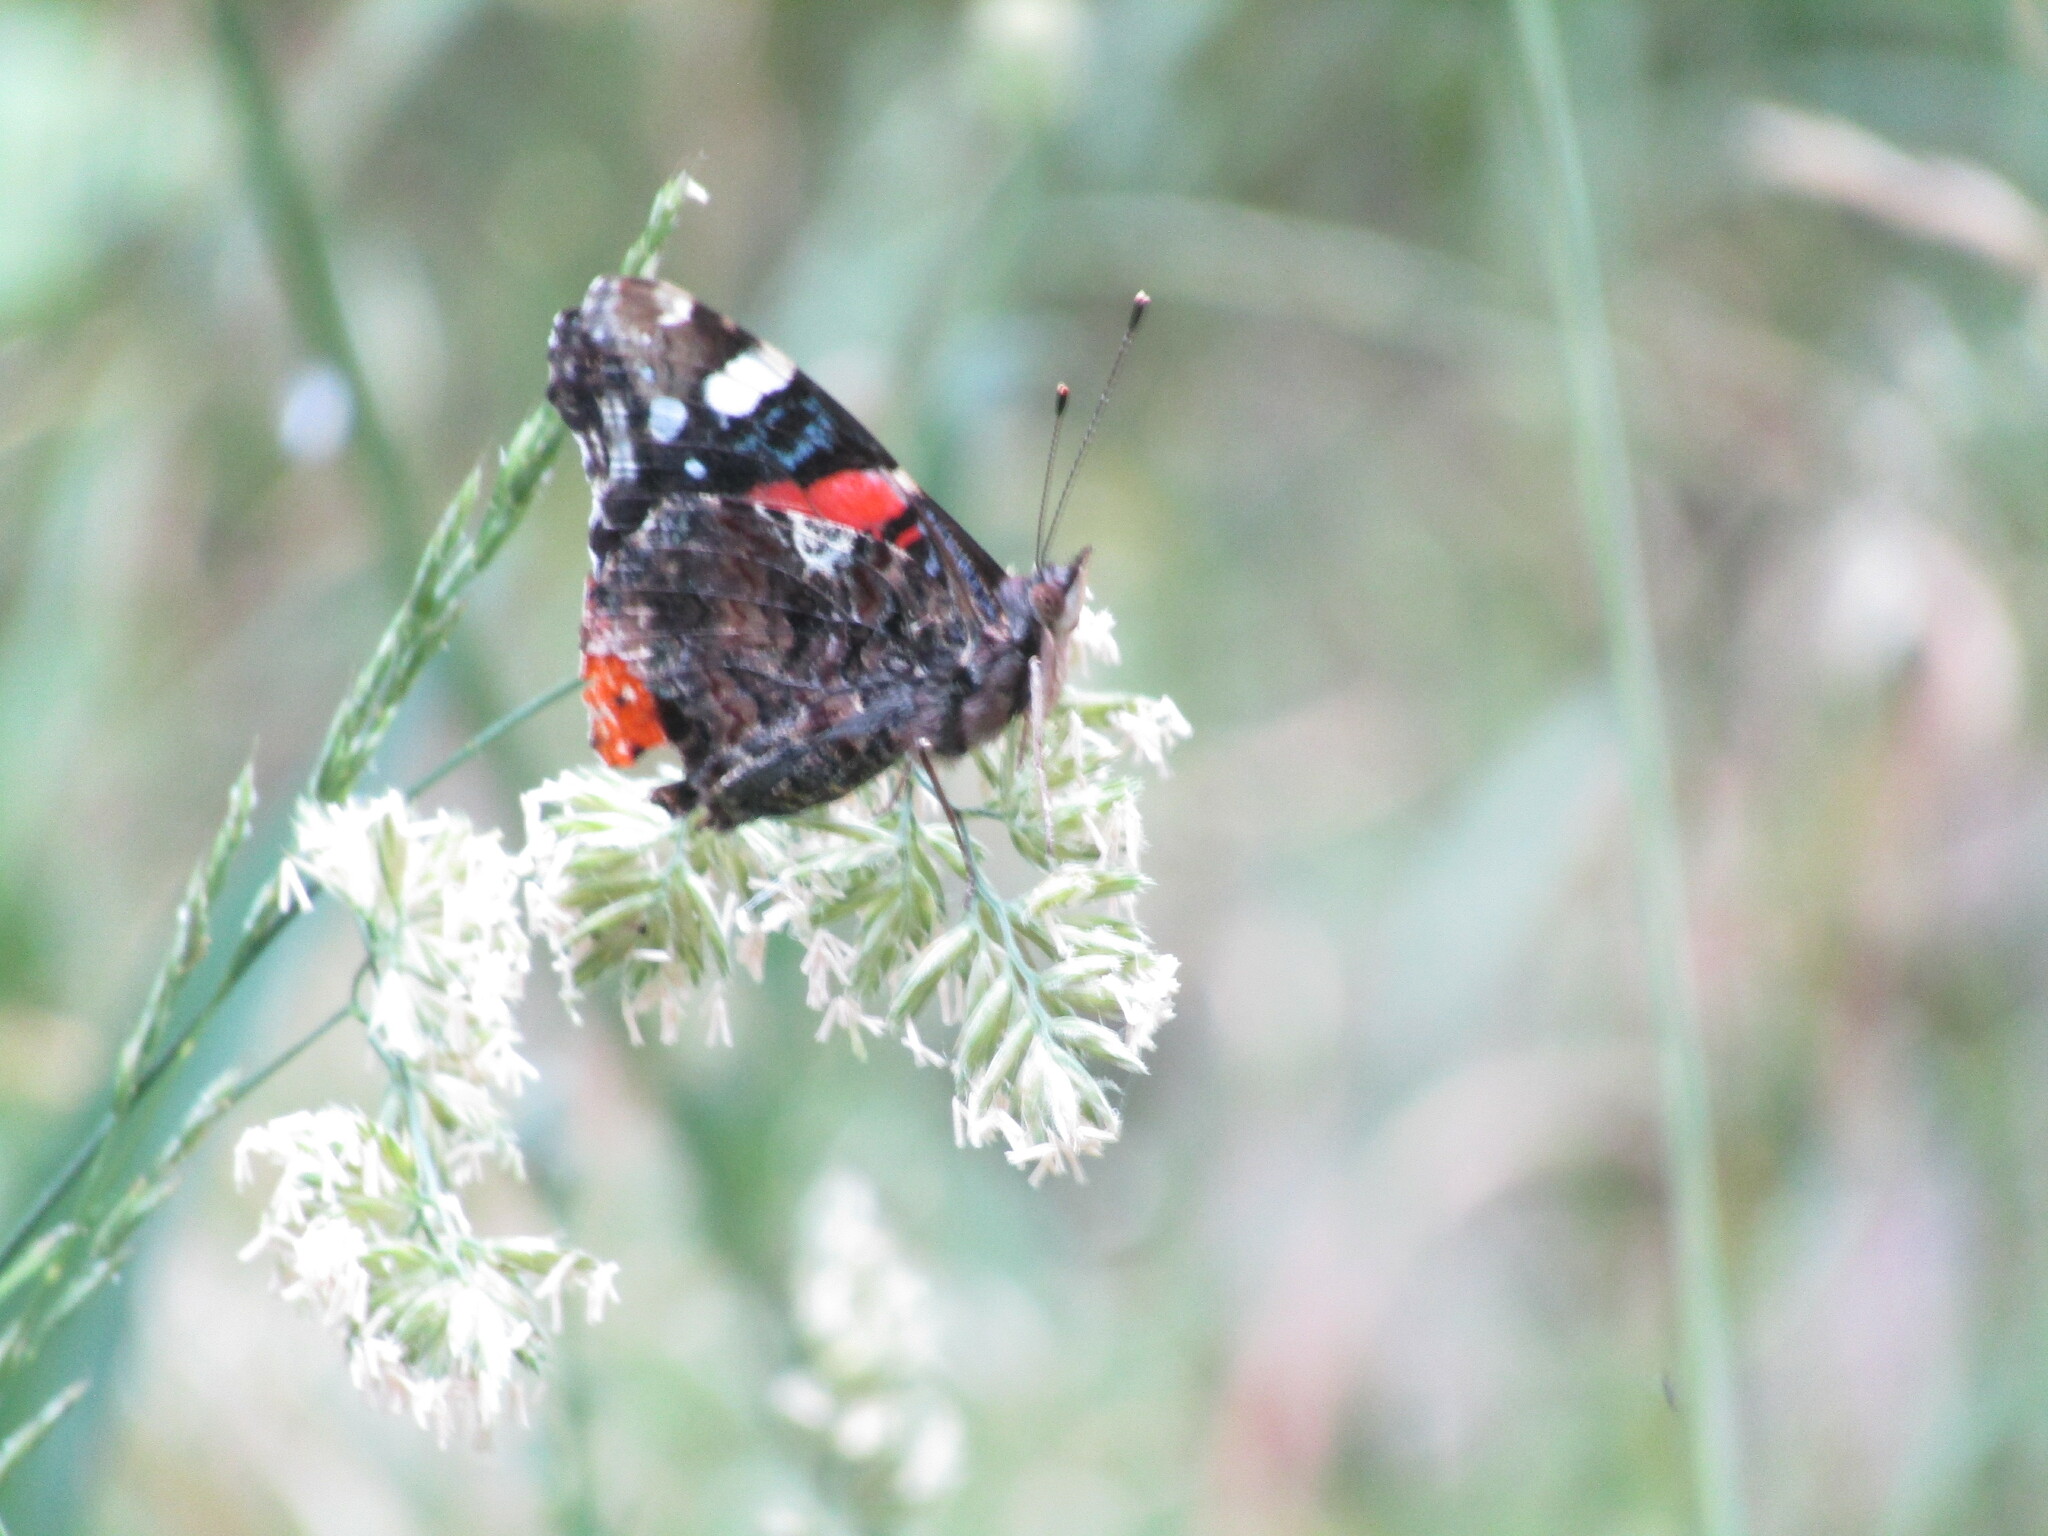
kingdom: Animalia
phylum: Arthropoda
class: Insecta
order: Lepidoptera
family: Nymphalidae
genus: Vanessa
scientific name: Vanessa atalanta
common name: Red admiral
